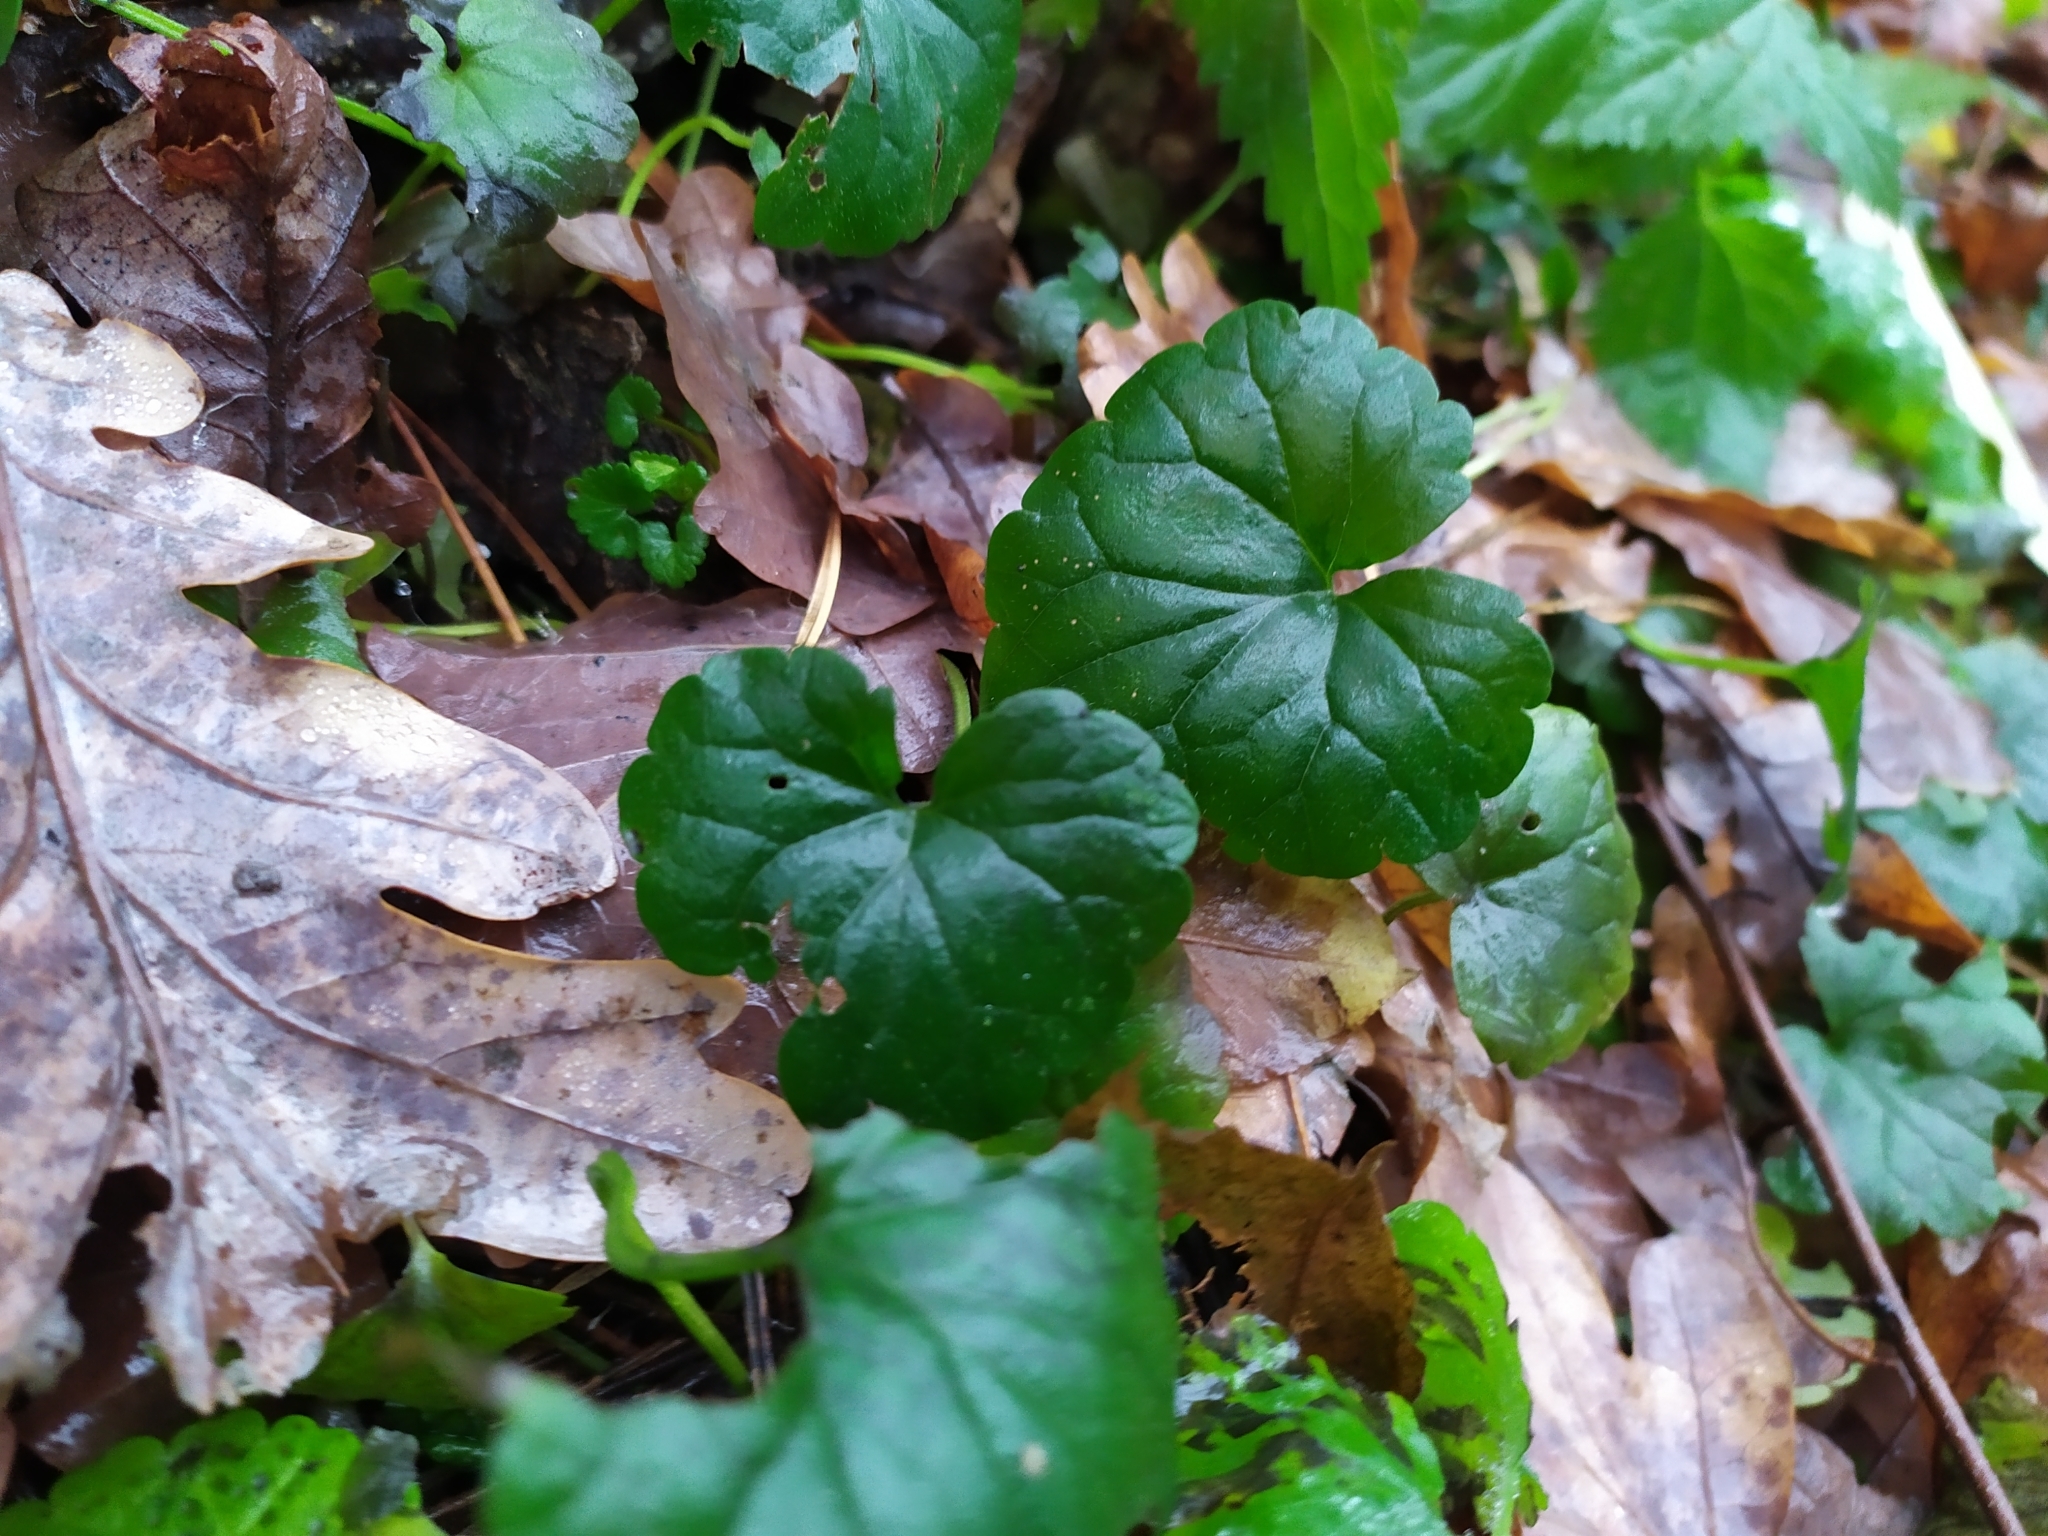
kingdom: Plantae
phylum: Tracheophyta
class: Magnoliopsida
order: Lamiales
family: Lamiaceae
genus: Glechoma
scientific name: Glechoma hederacea
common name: Ground ivy
